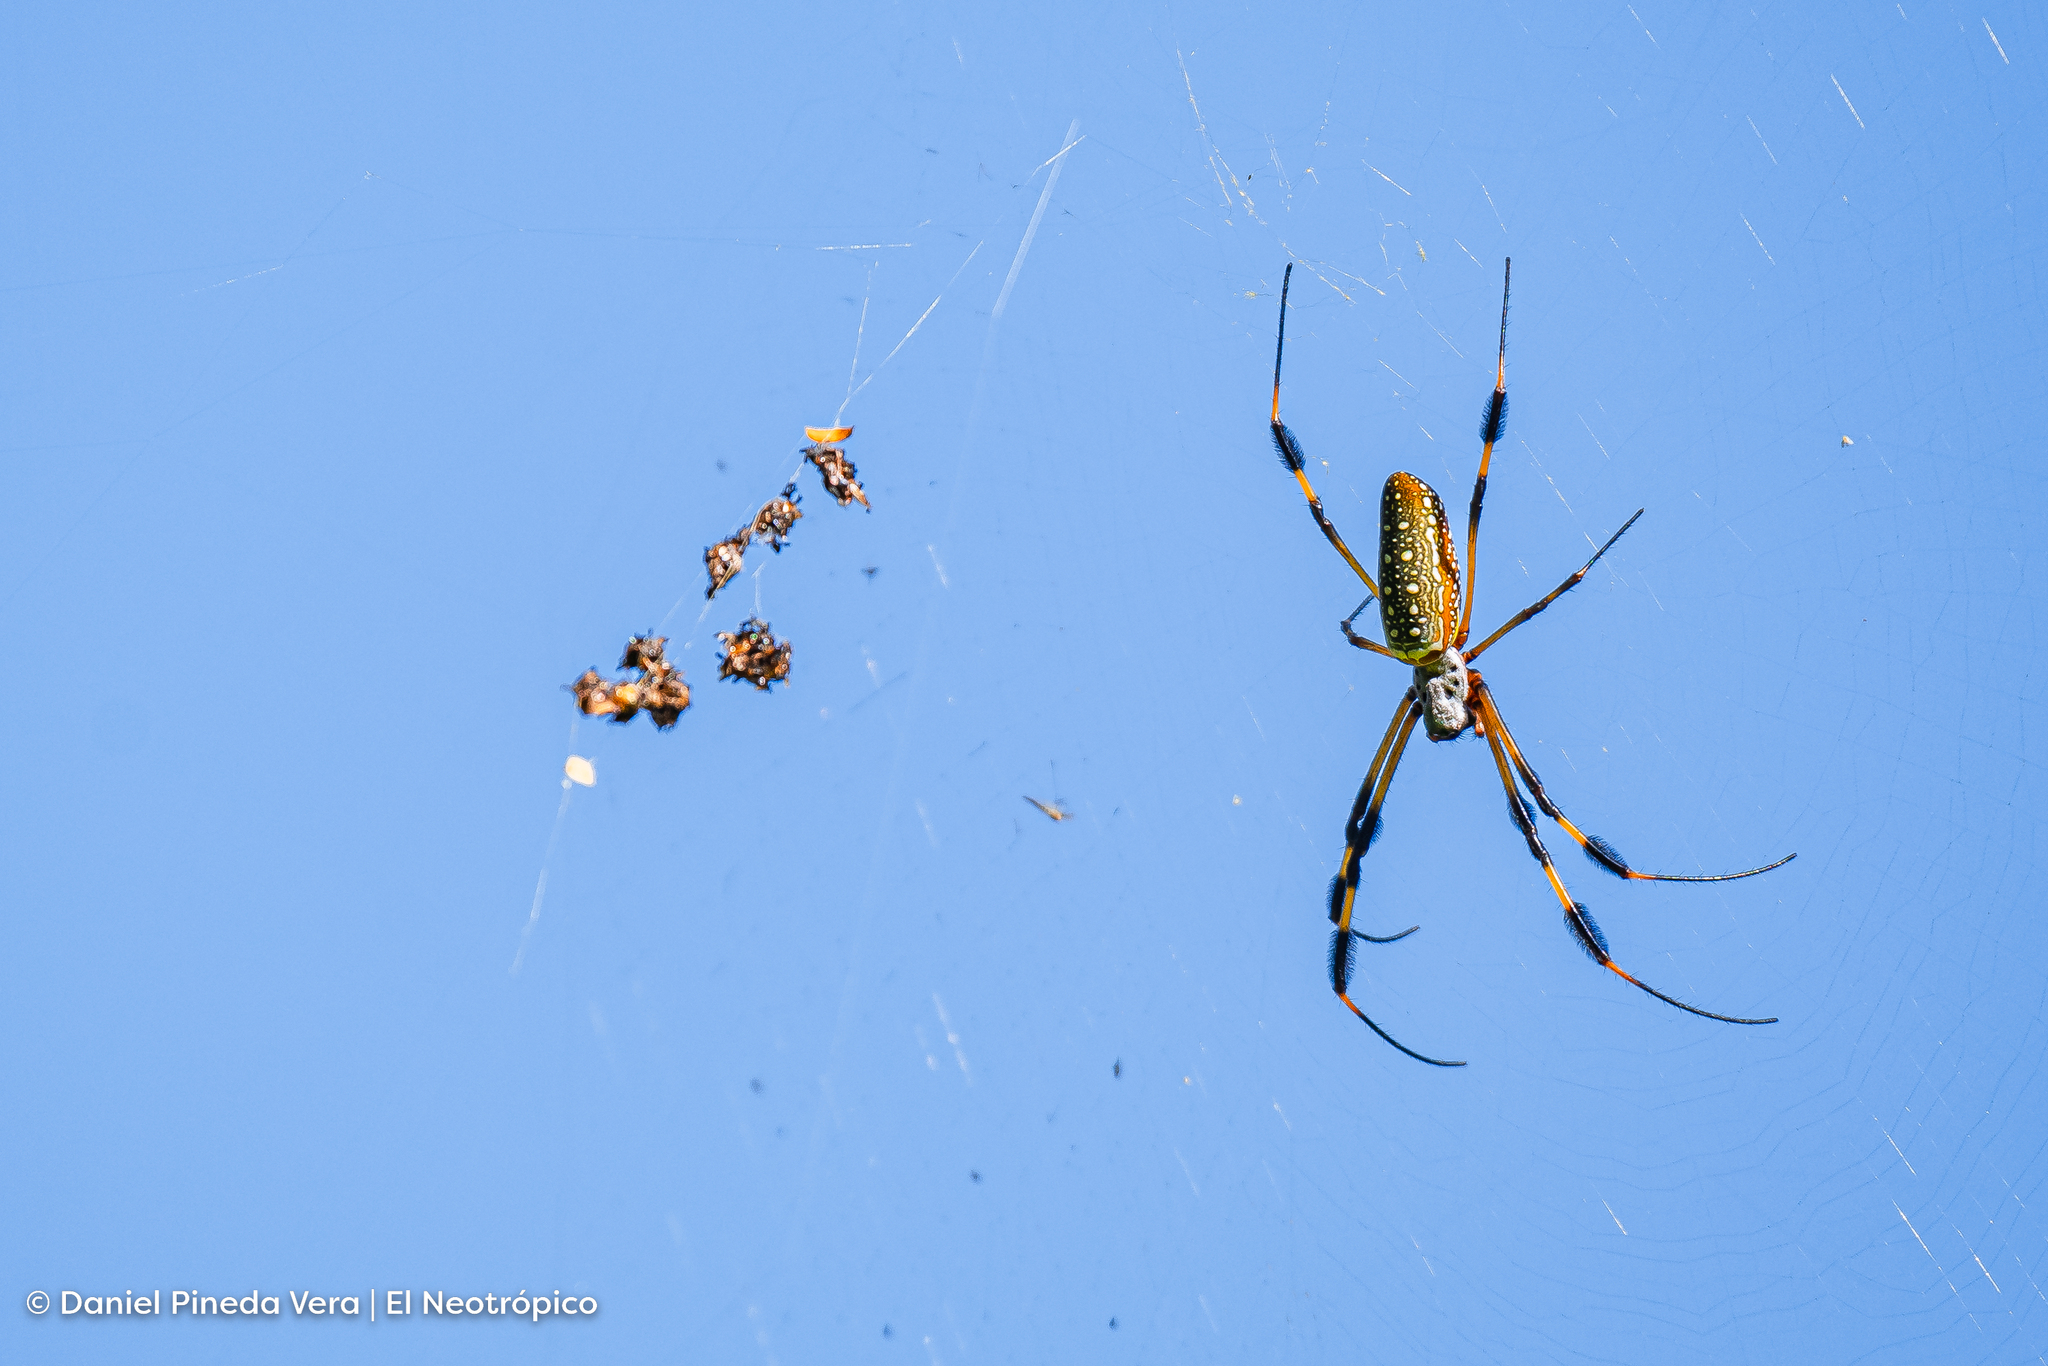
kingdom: Animalia
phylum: Arthropoda
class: Arachnida
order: Araneae
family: Araneidae
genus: Trichonephila
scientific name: Trichonephila clavipes
